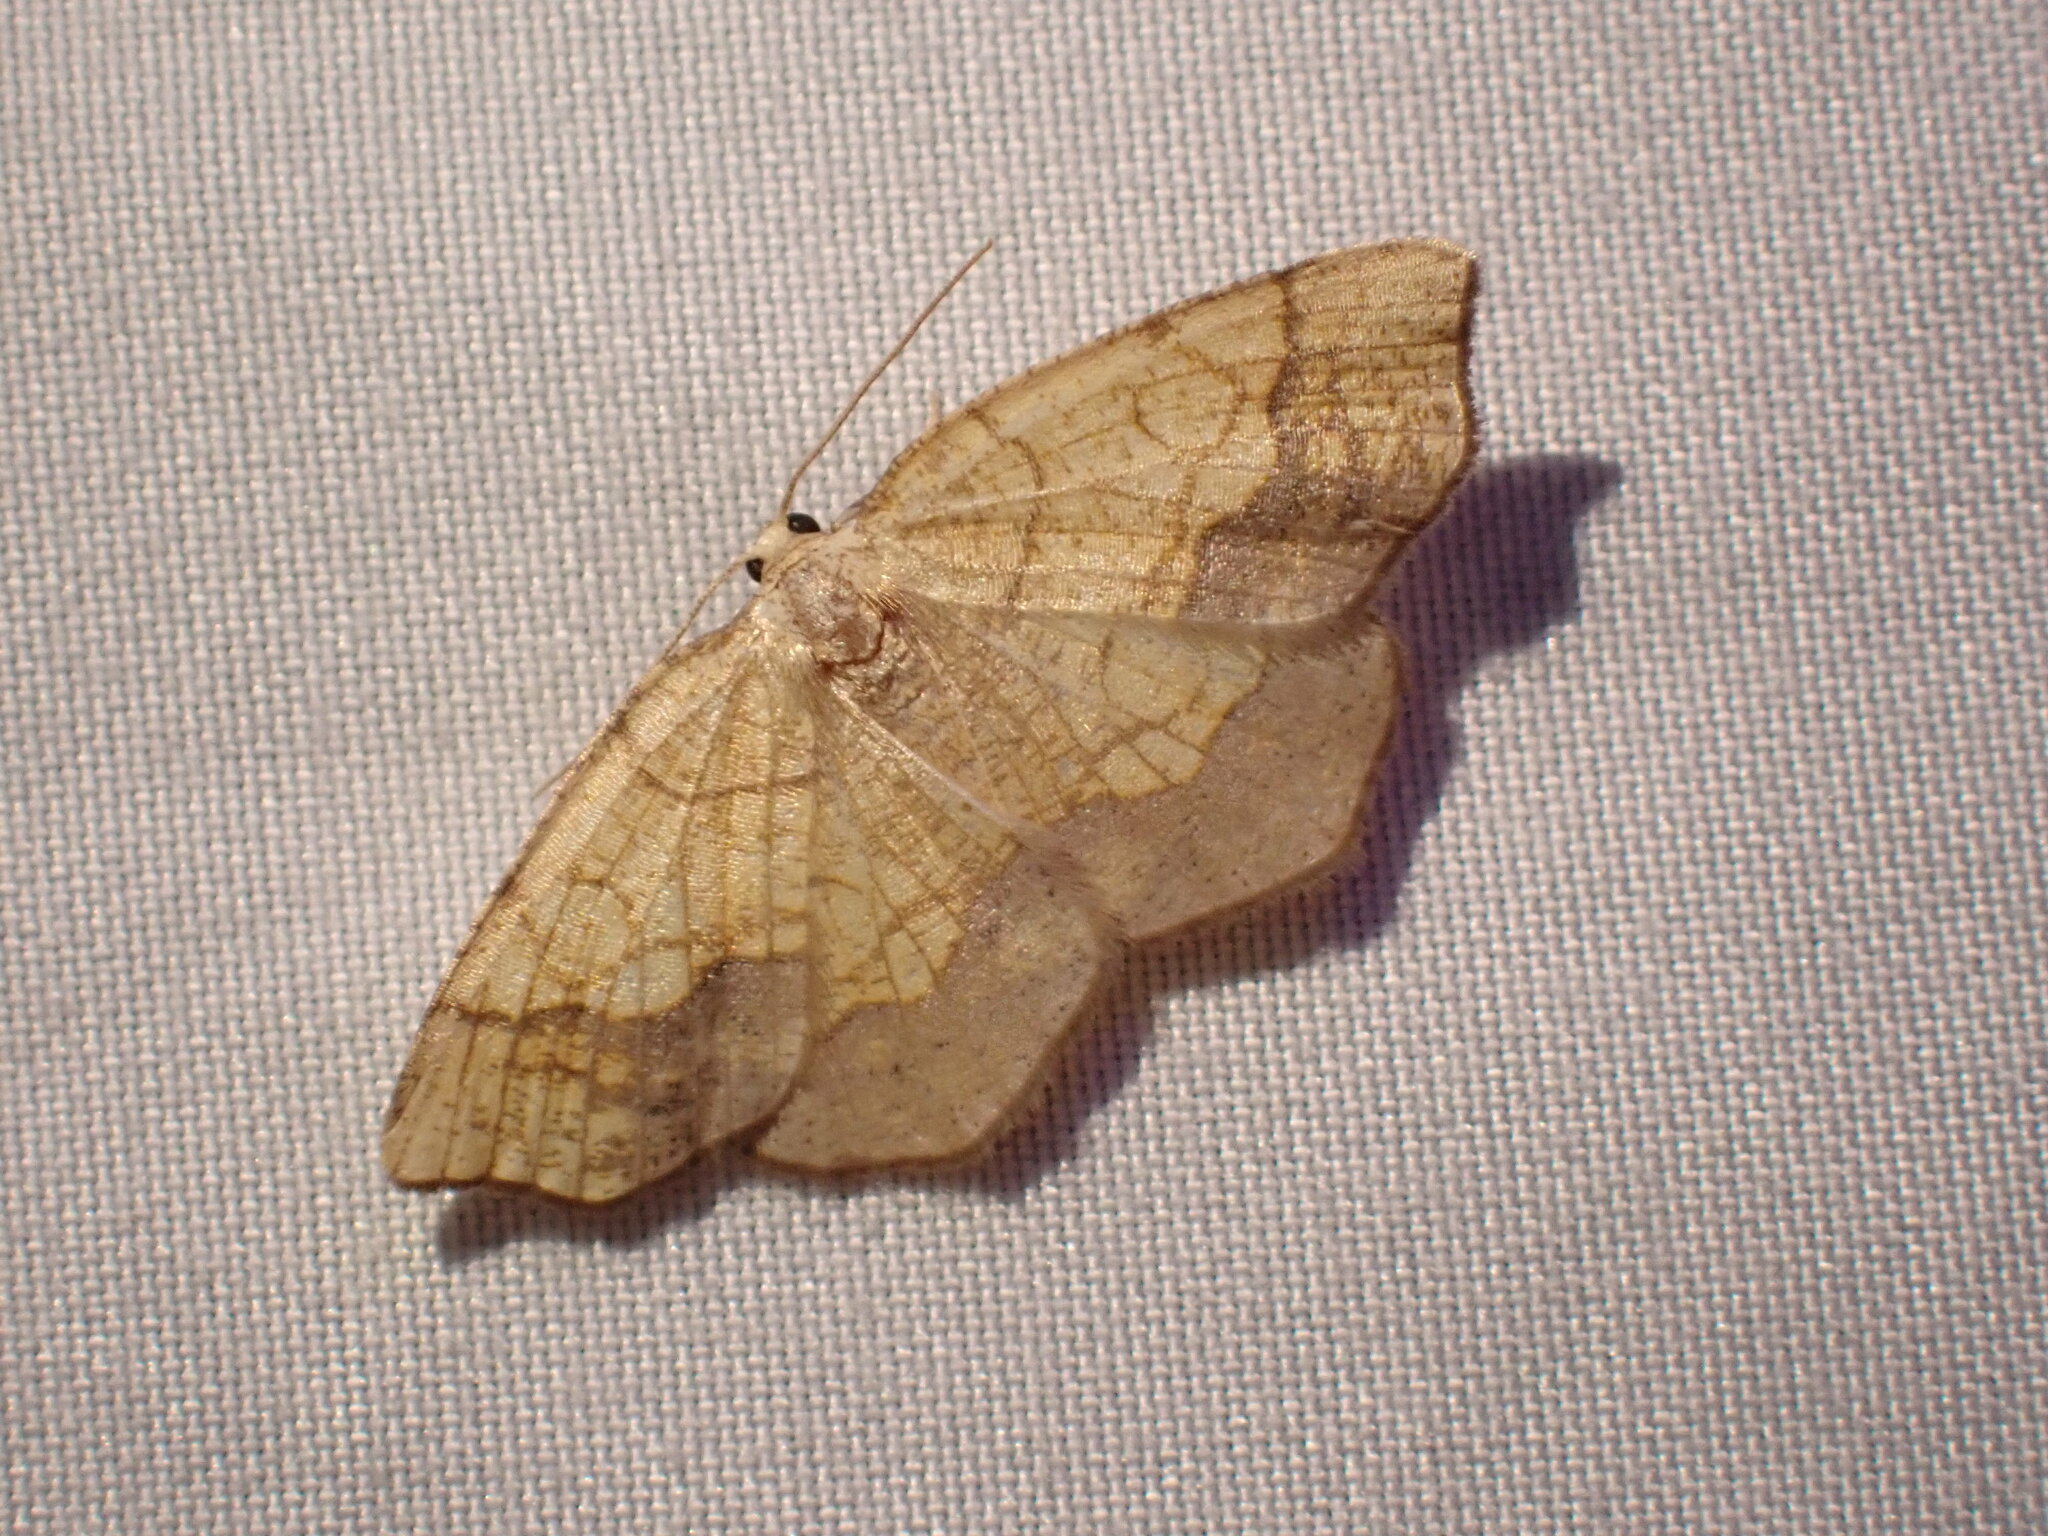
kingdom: Animalia
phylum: Arthropoda
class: Insecta
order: Lepidoptera
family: Geometridae
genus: Nematocampa
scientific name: Nematocampa resistaria
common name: Horned spanworm moth
